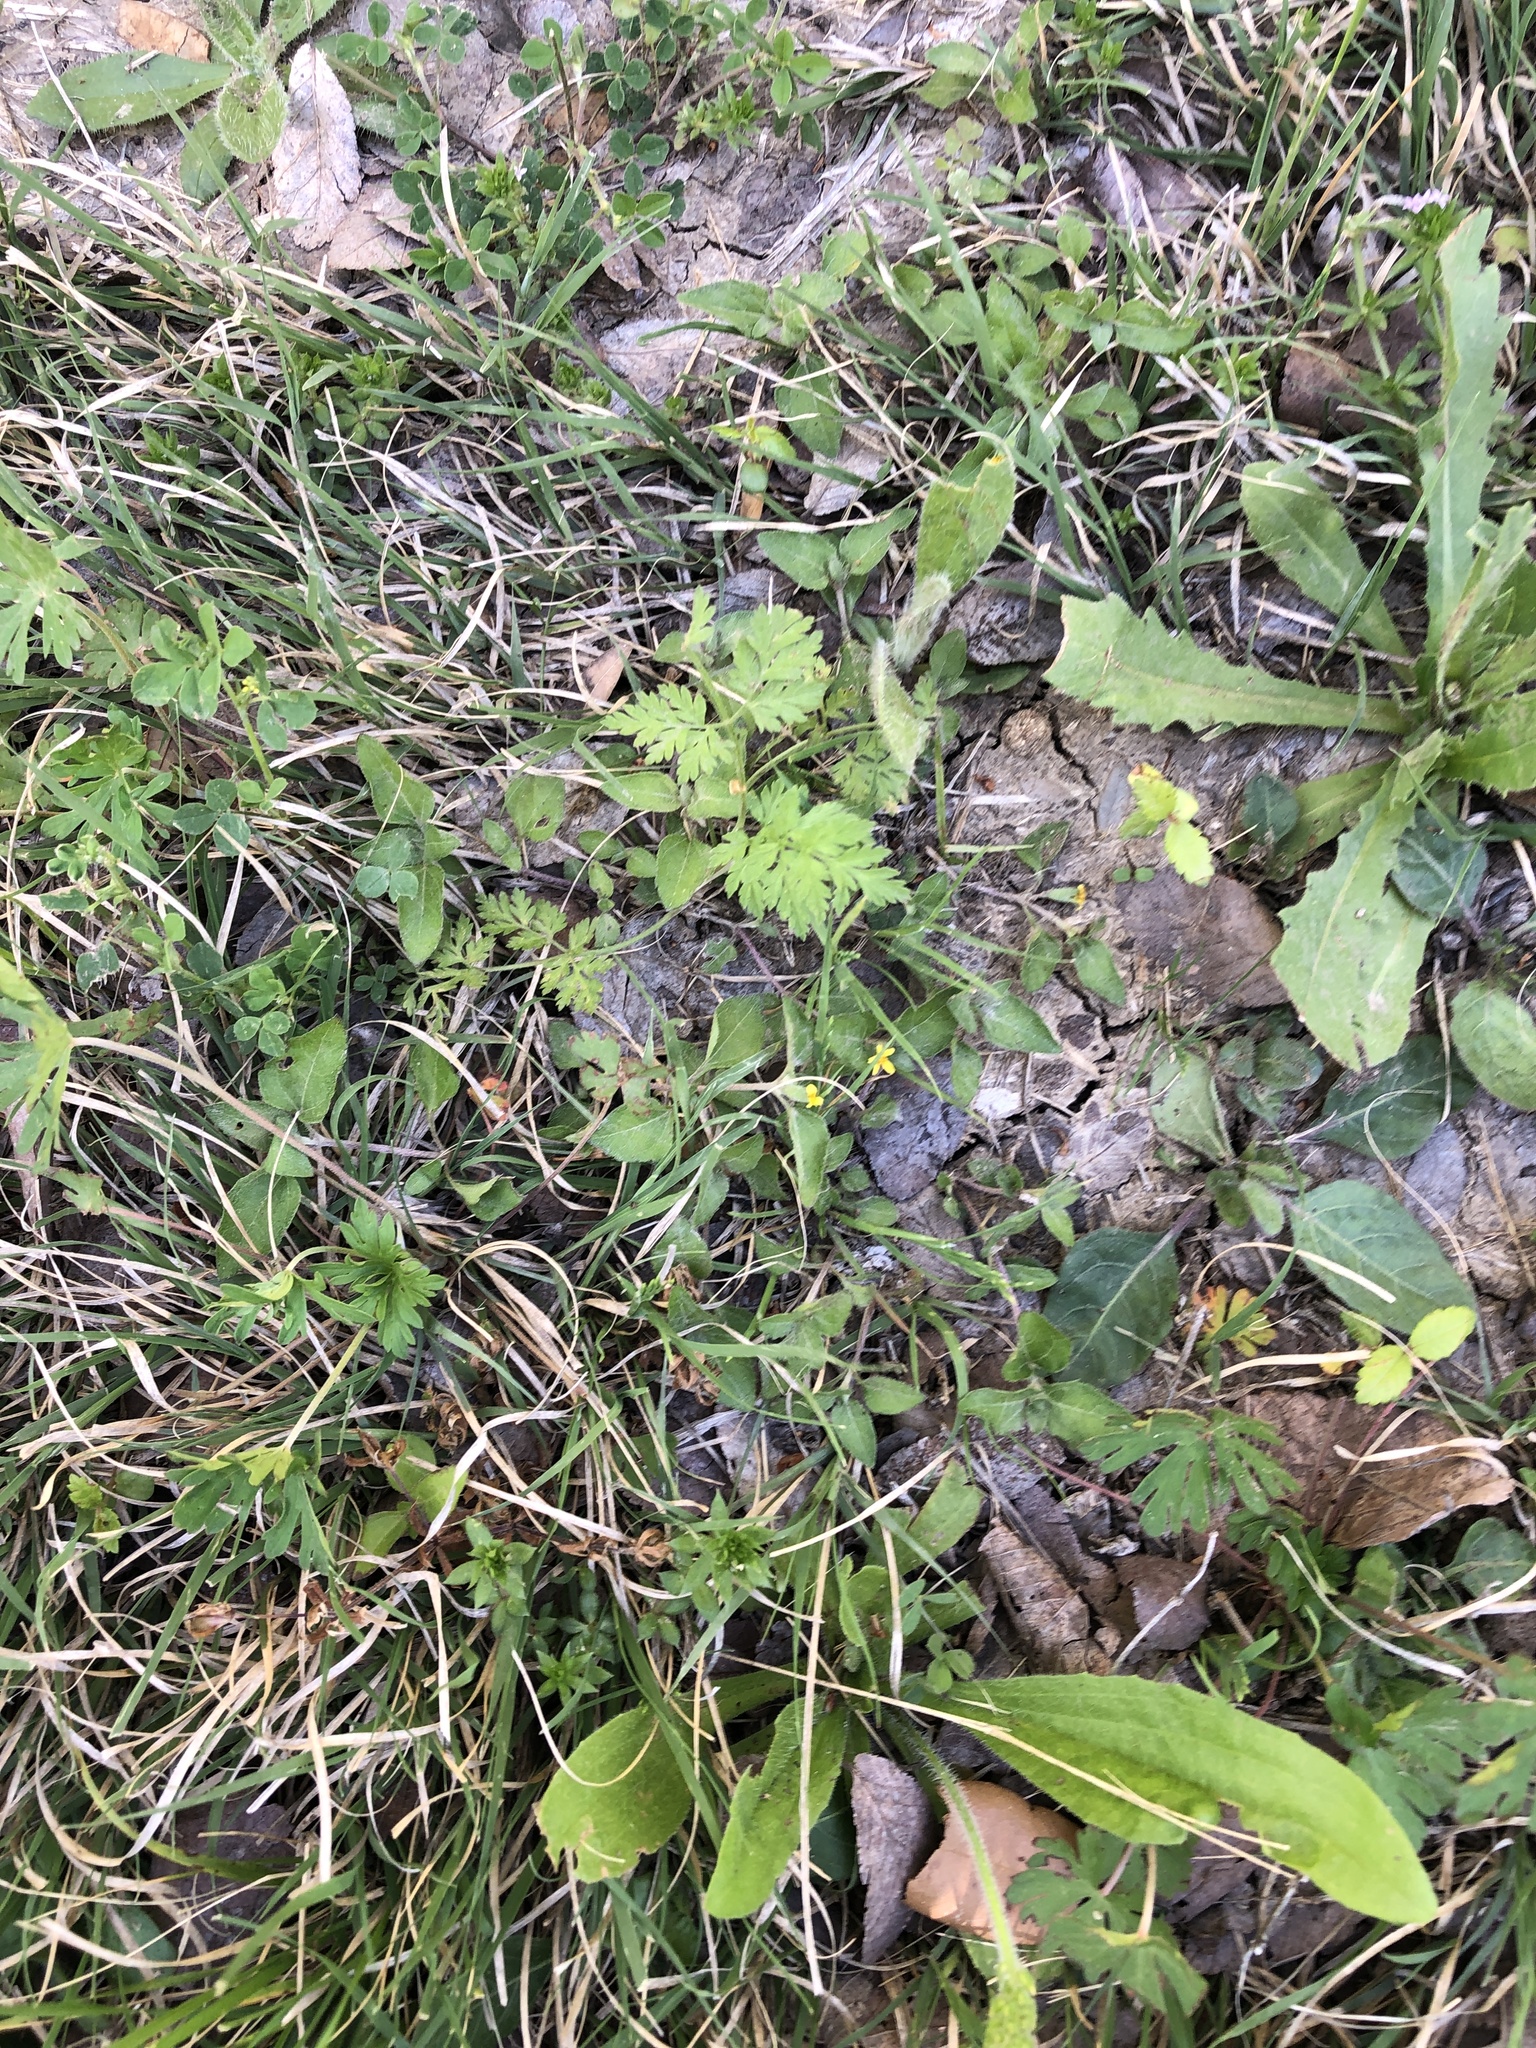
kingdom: Plantae
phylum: Tracheophyta
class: Magnoliopsida
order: Asterales
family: Asteraceae
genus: Calyptocarpus
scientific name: Calyptocarpus vialis
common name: Straggler daisy
